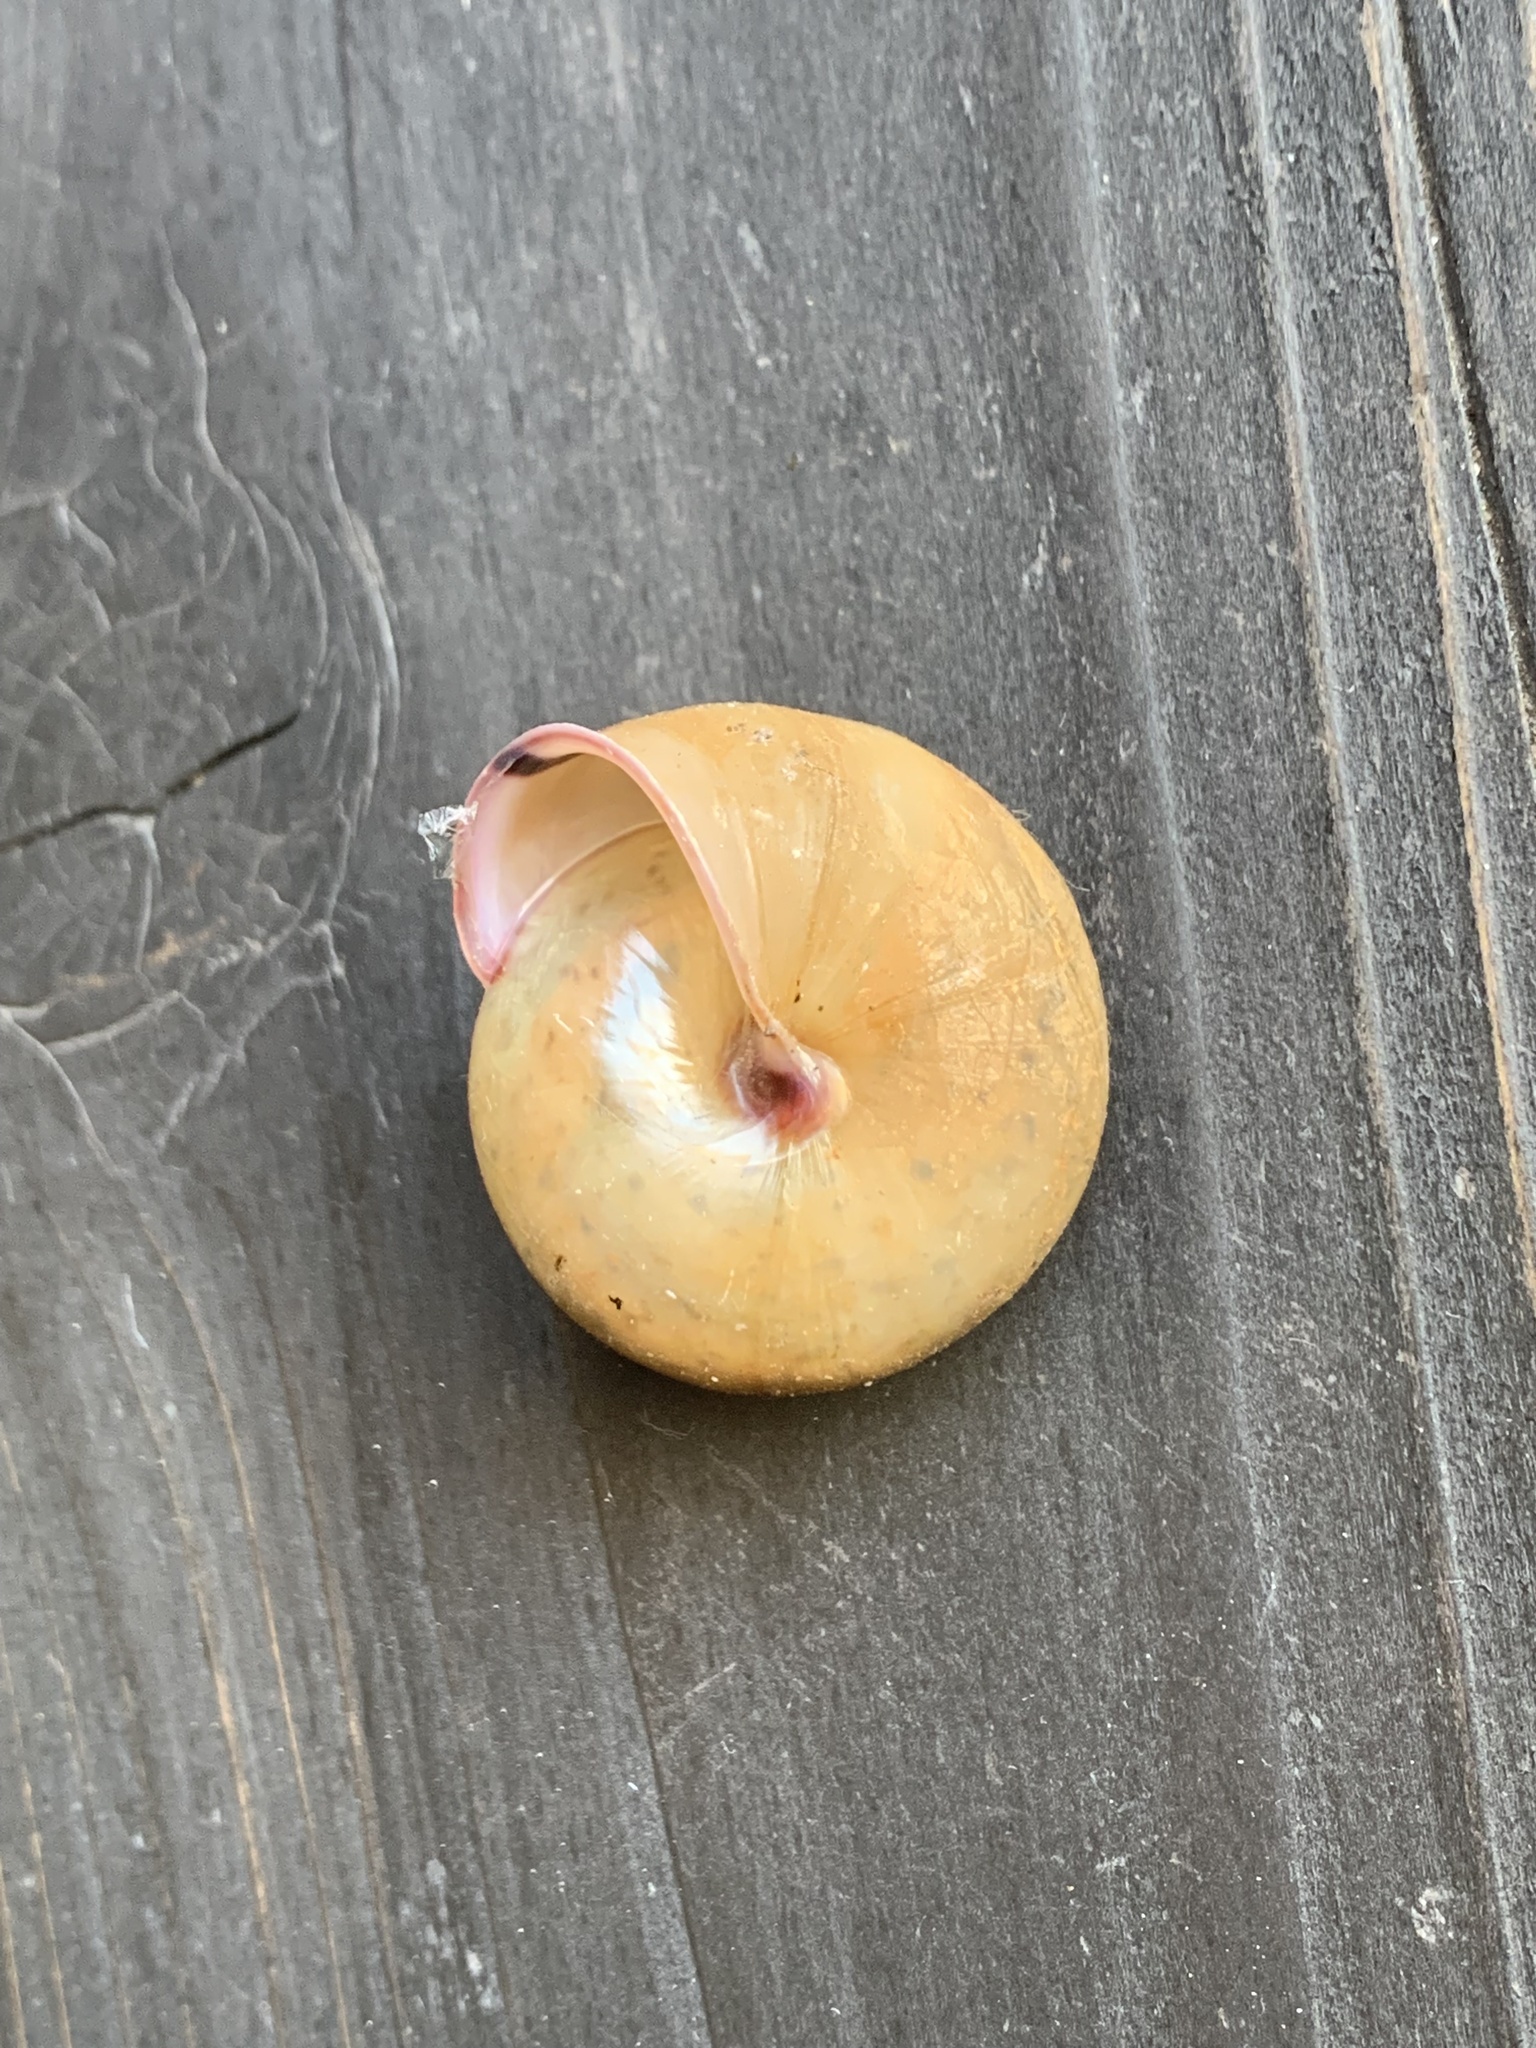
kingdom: Animalia
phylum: Mollusca
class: Gastropoda
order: Stylommatophora
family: Camaenidae
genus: Satsuma
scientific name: Satsuma myomphala
